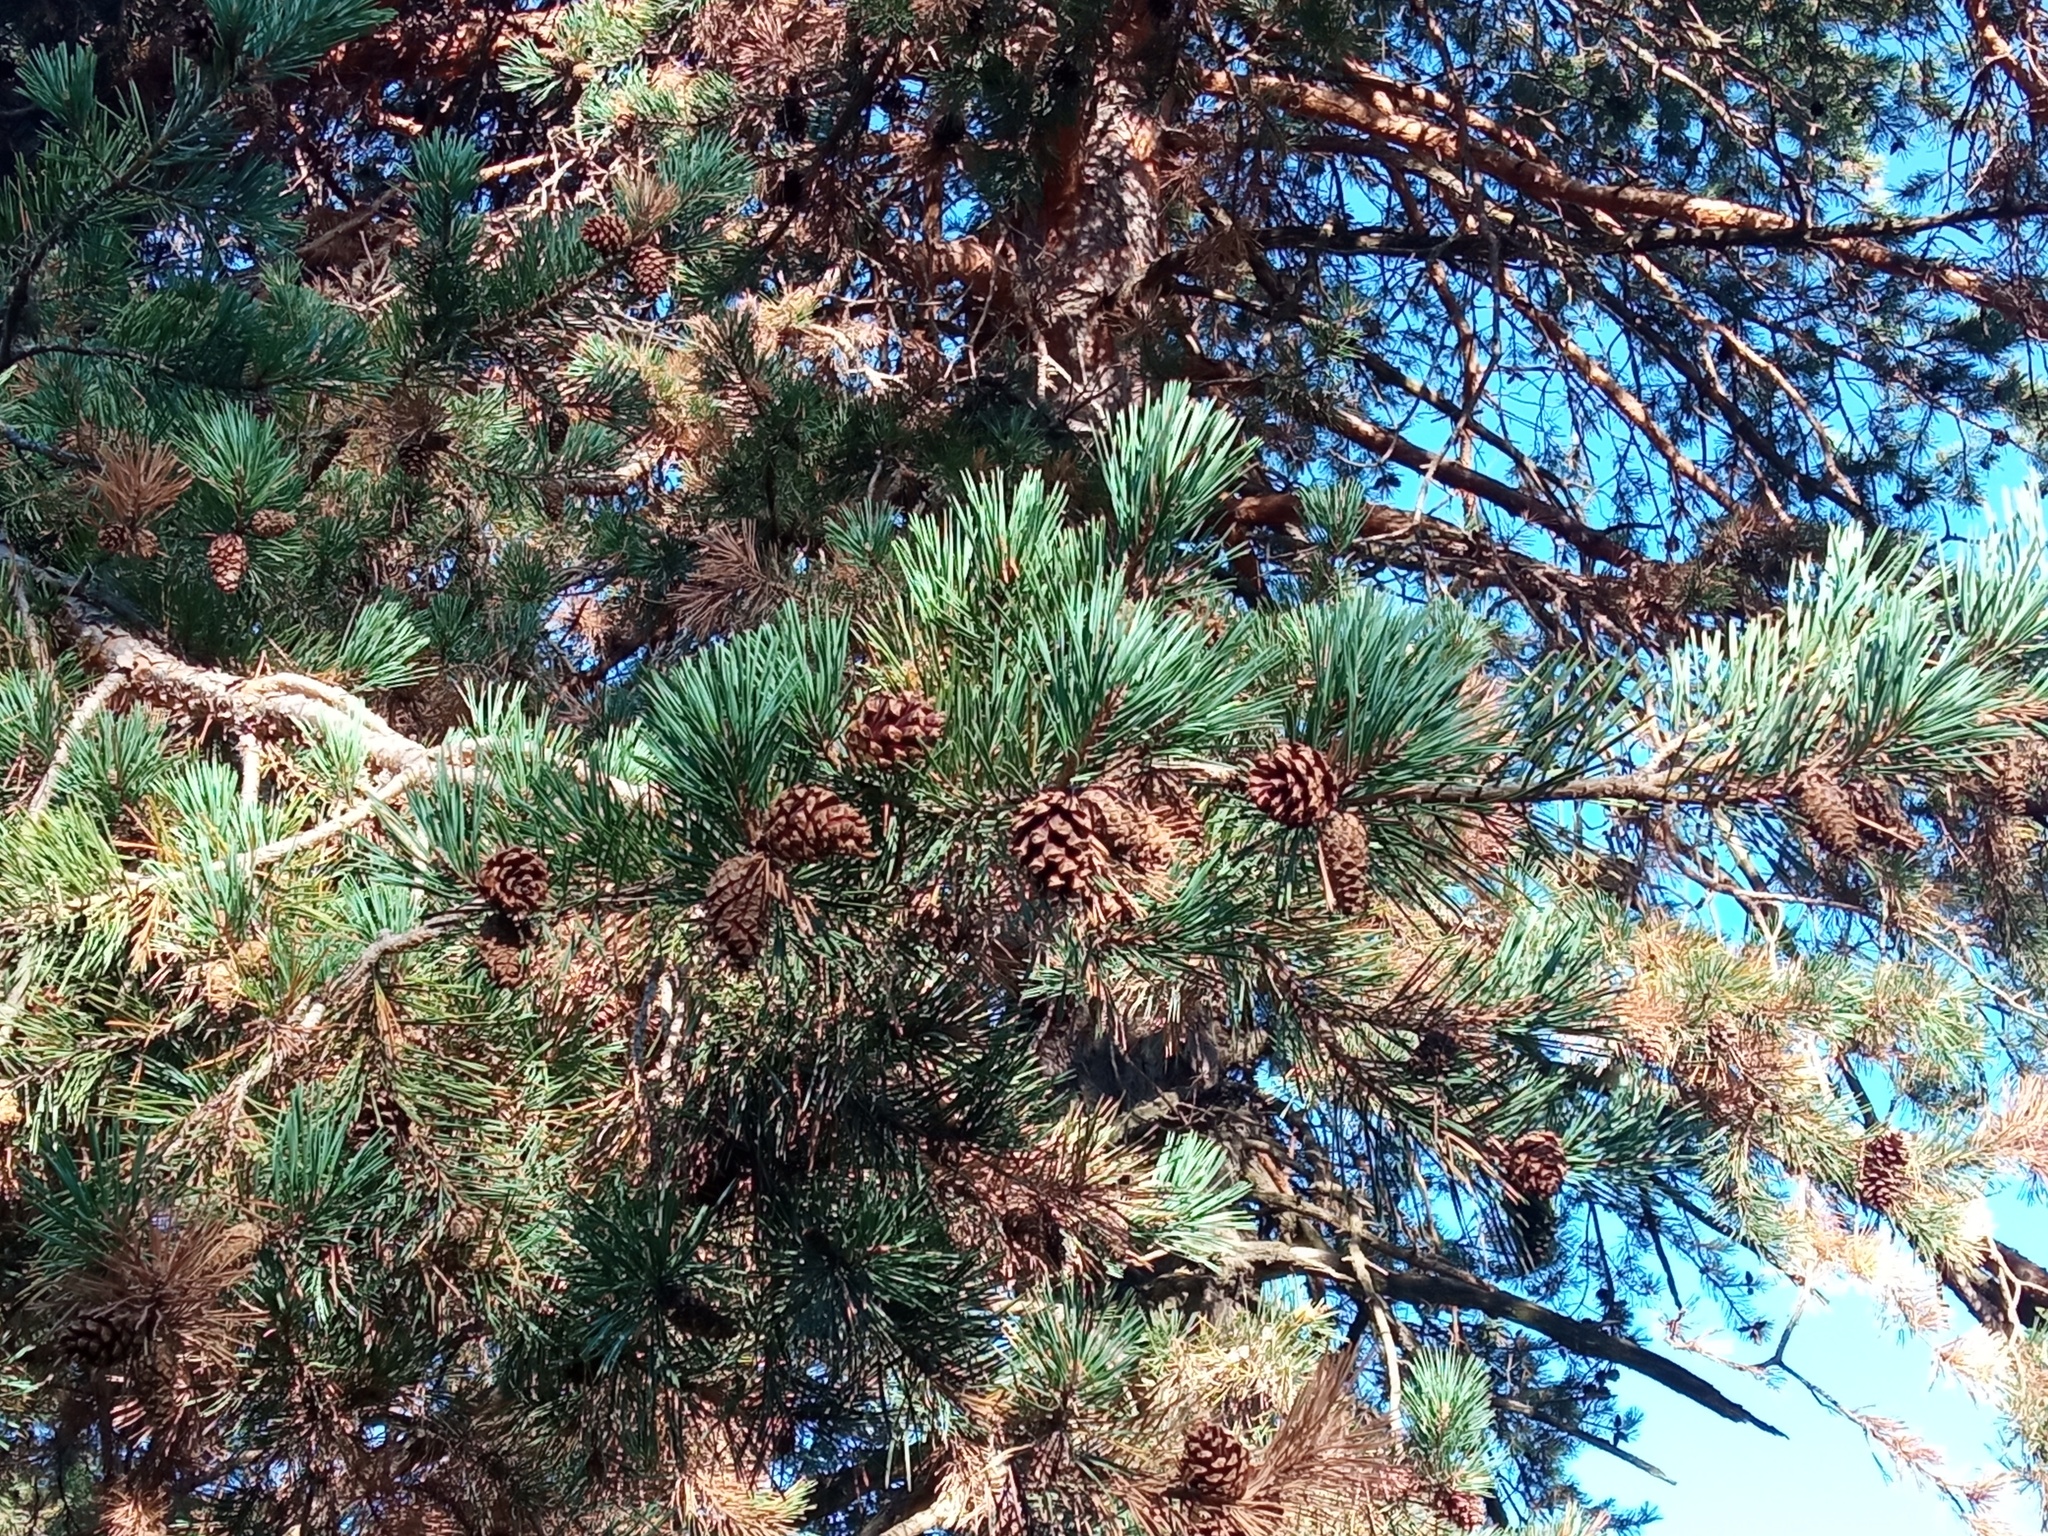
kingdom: Plantae
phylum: Tracheophyta
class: Pinopsida
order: Pinales
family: Pinaceae
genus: Pinus
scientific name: Pinus sylvestris
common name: Scots pine
